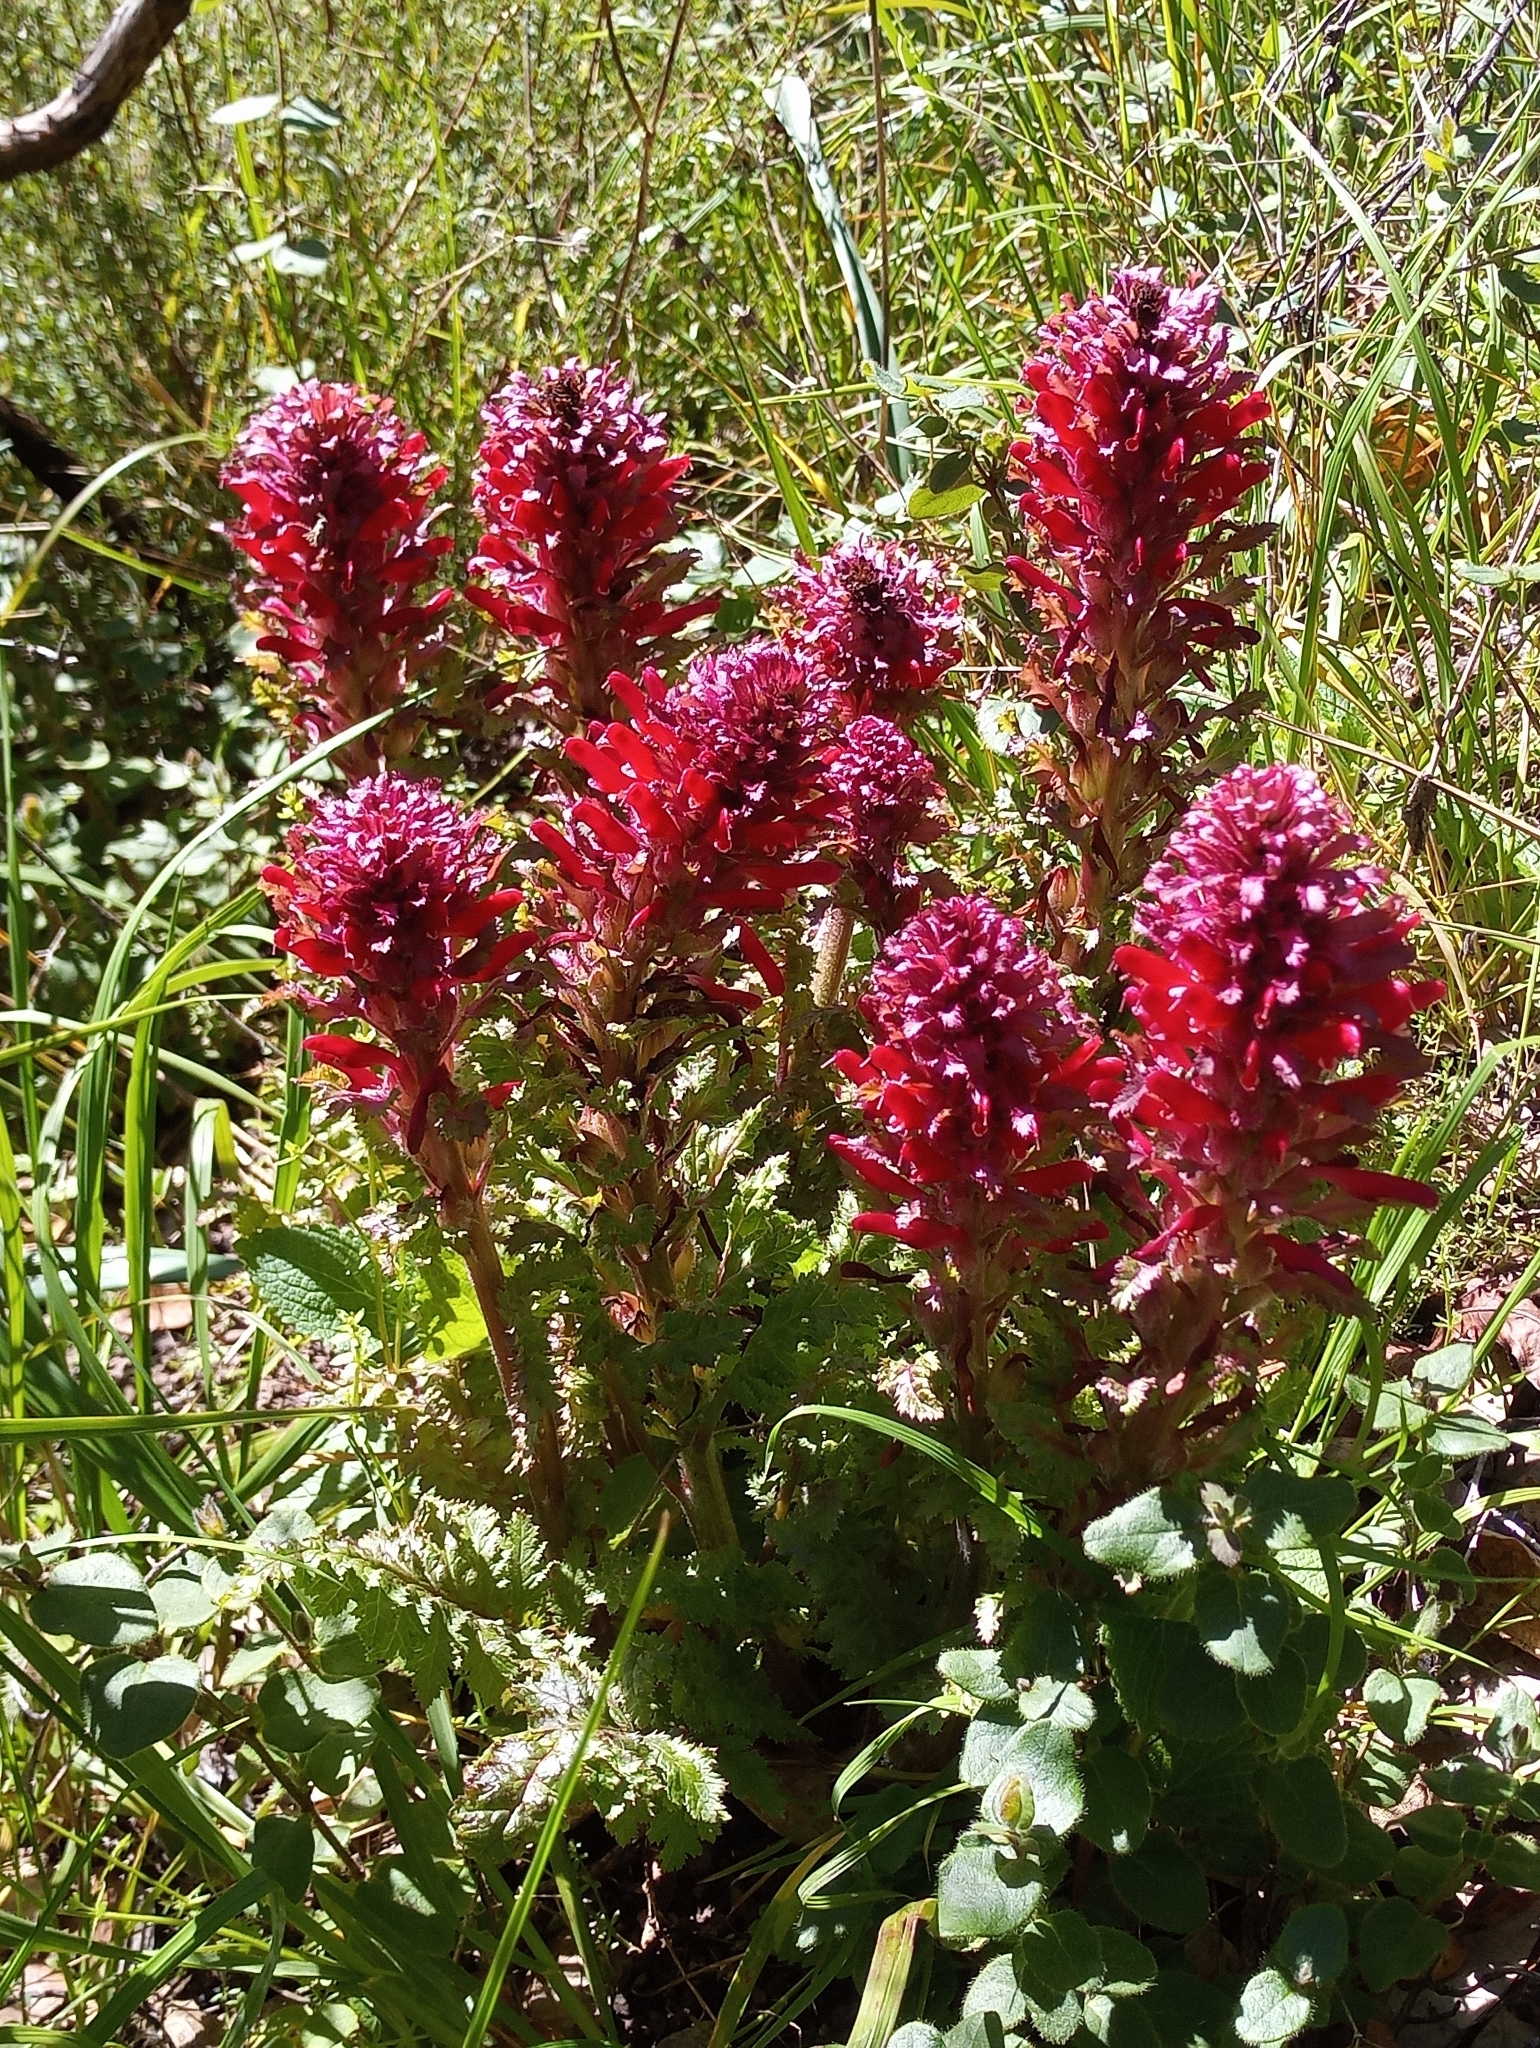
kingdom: Plantae
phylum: Tracheophyta
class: Magnoliopsida
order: Lamiales
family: Orobanchaceae
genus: Pedicularis
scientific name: Pedicularis densiflora
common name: Indian warrior
